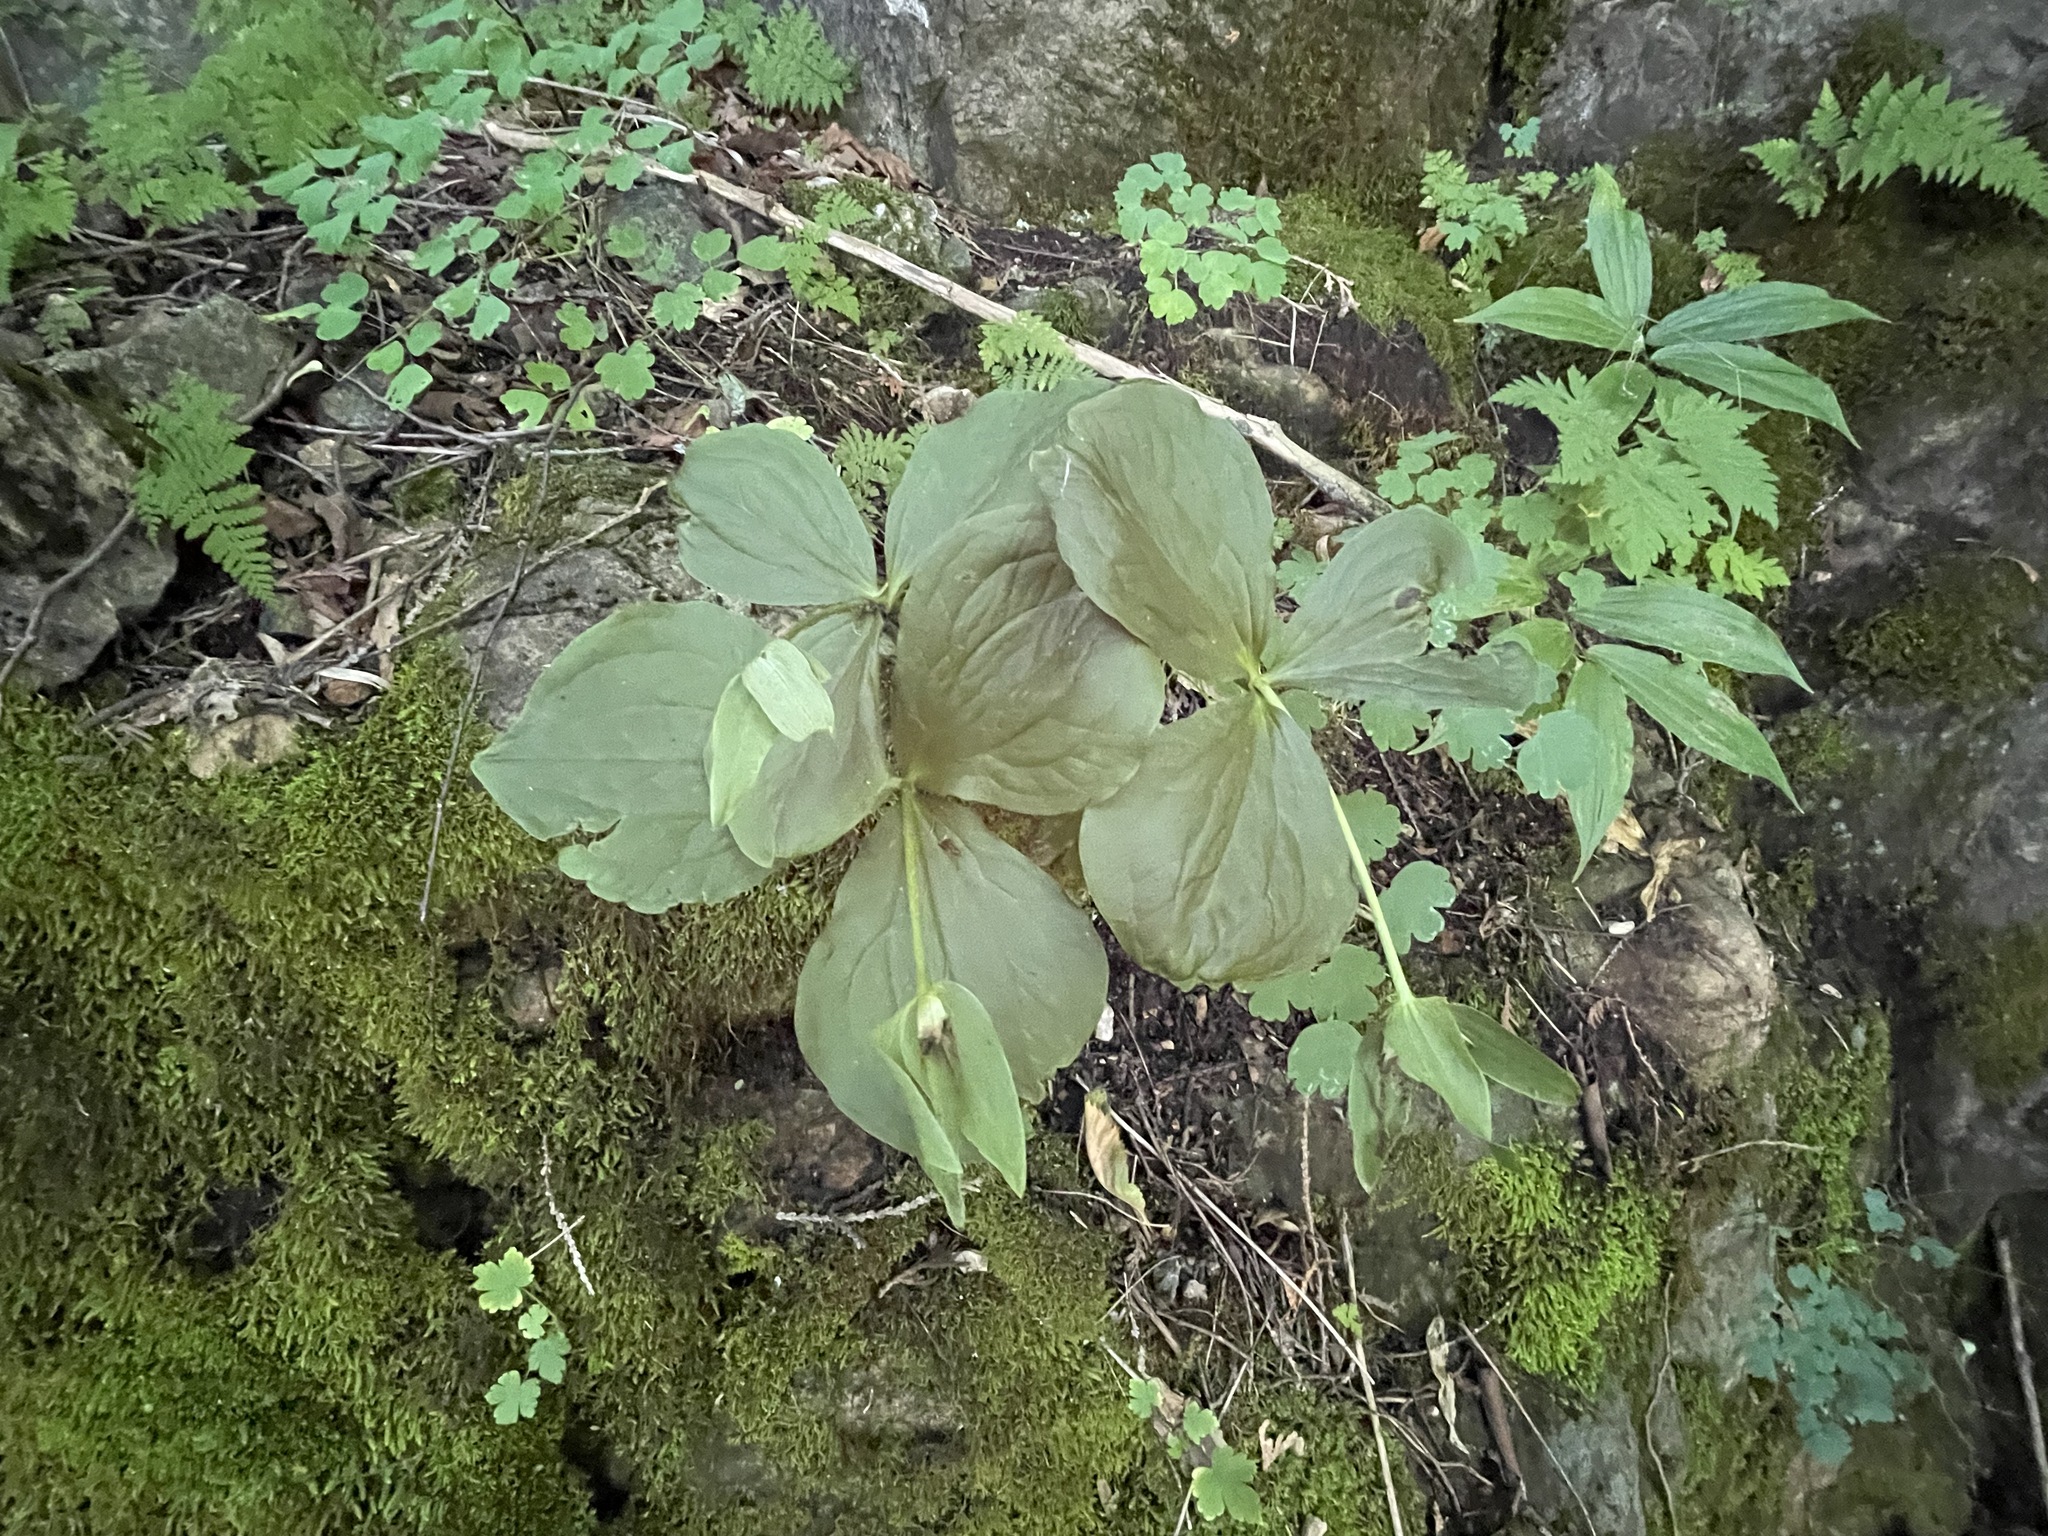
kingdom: Plantae
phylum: Tracheophyta
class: Liliopsida
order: Liliales
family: Melanthiaceae
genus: Trillium
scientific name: Trillium grandiflorum
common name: Great white trillium
